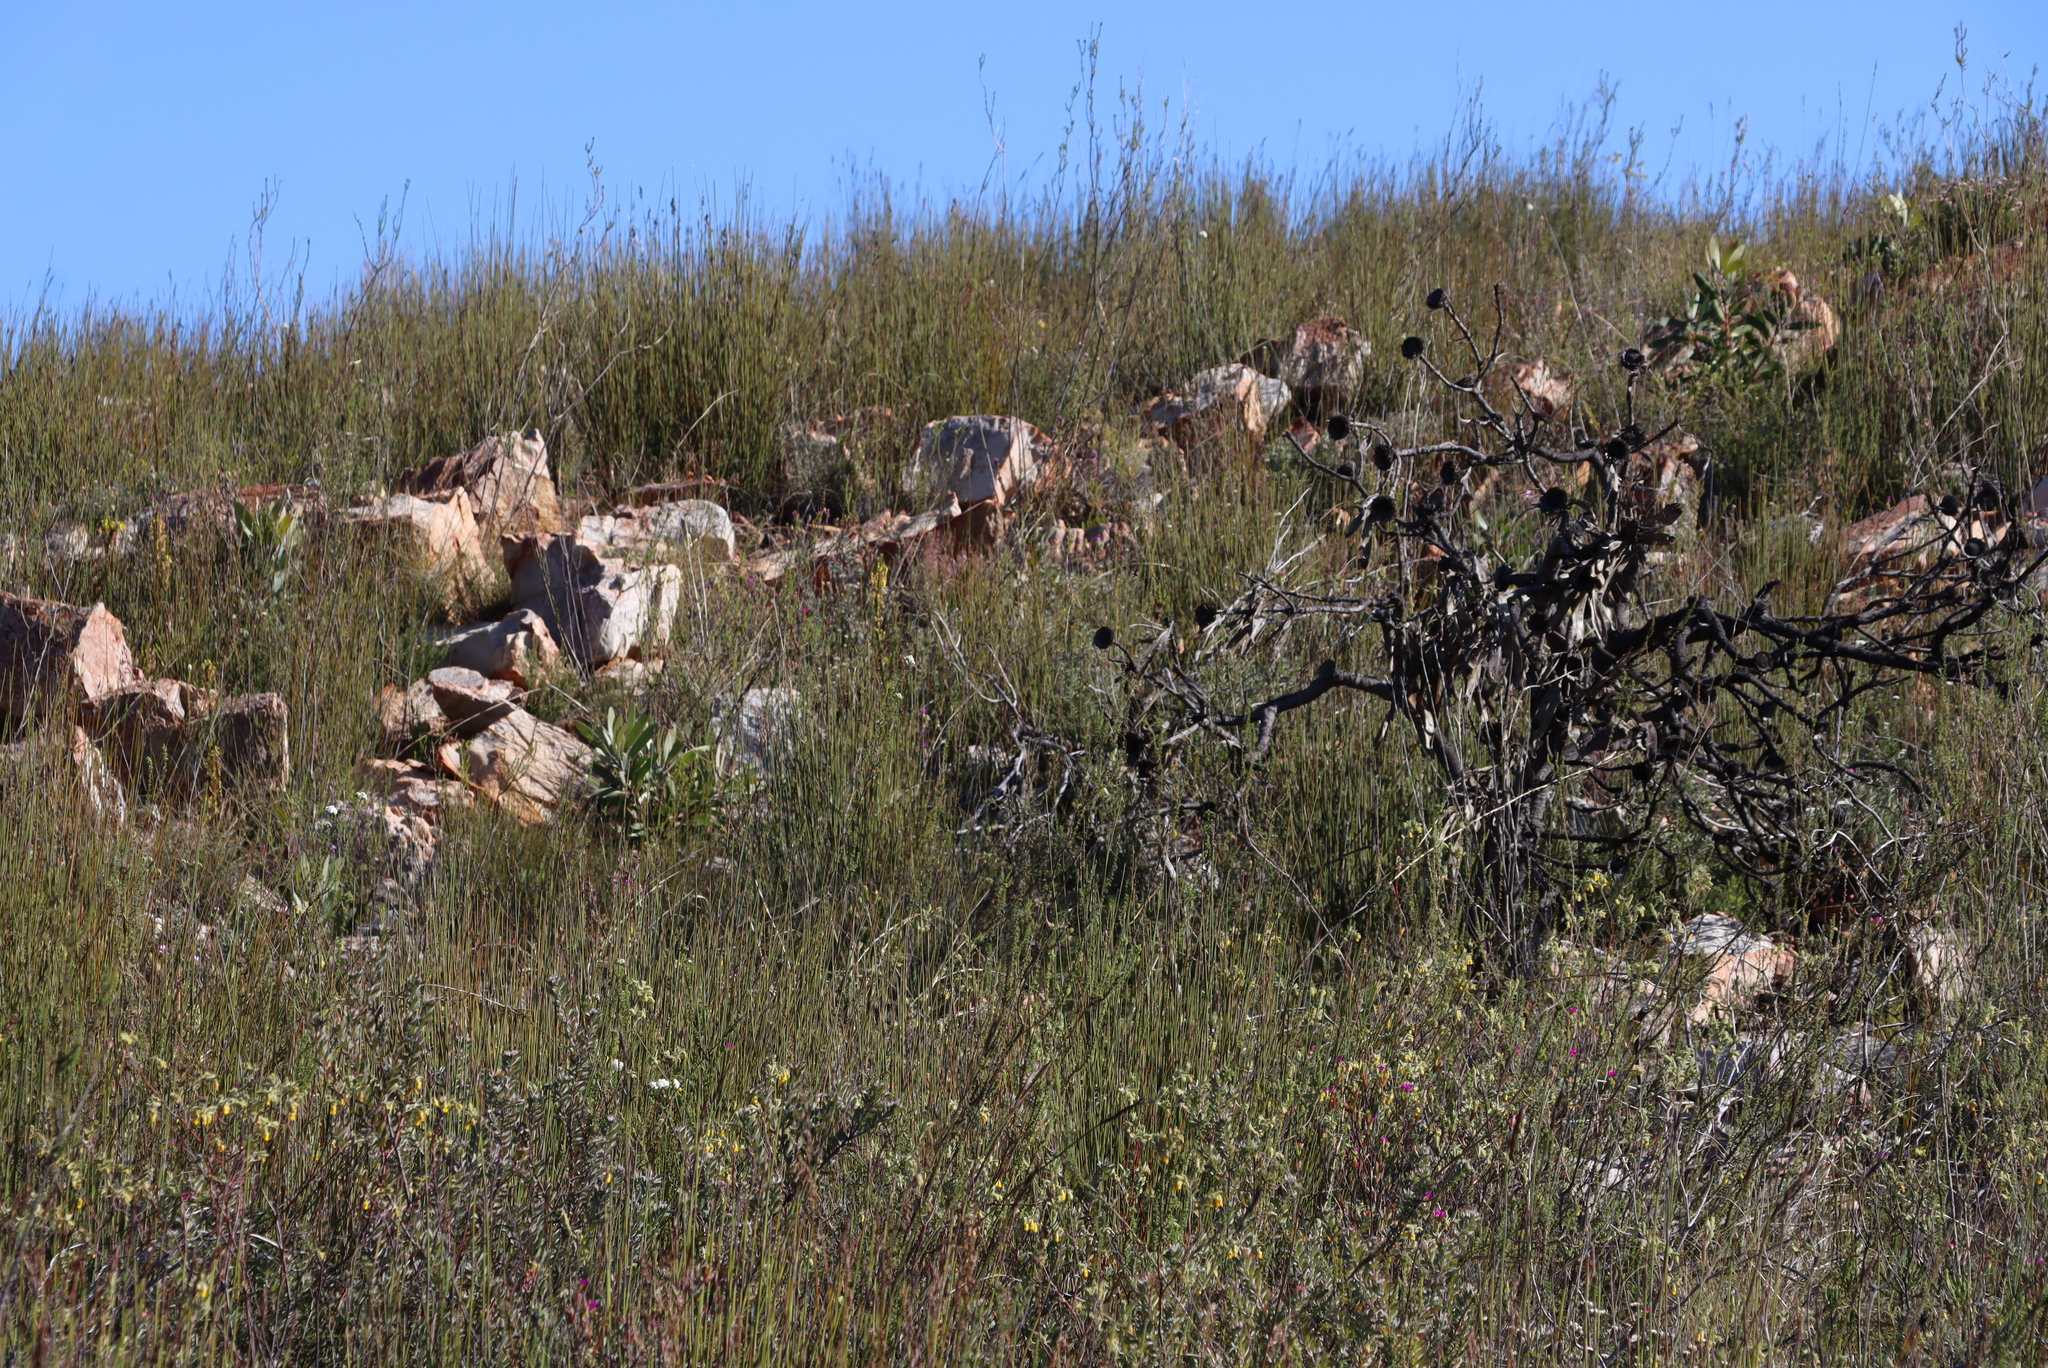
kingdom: Plantae
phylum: Tracheophyta
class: Magnoliopsida
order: Proteales
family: Proteaceae
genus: Protea
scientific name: Protea lorifolia
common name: Strap-leaved protea
